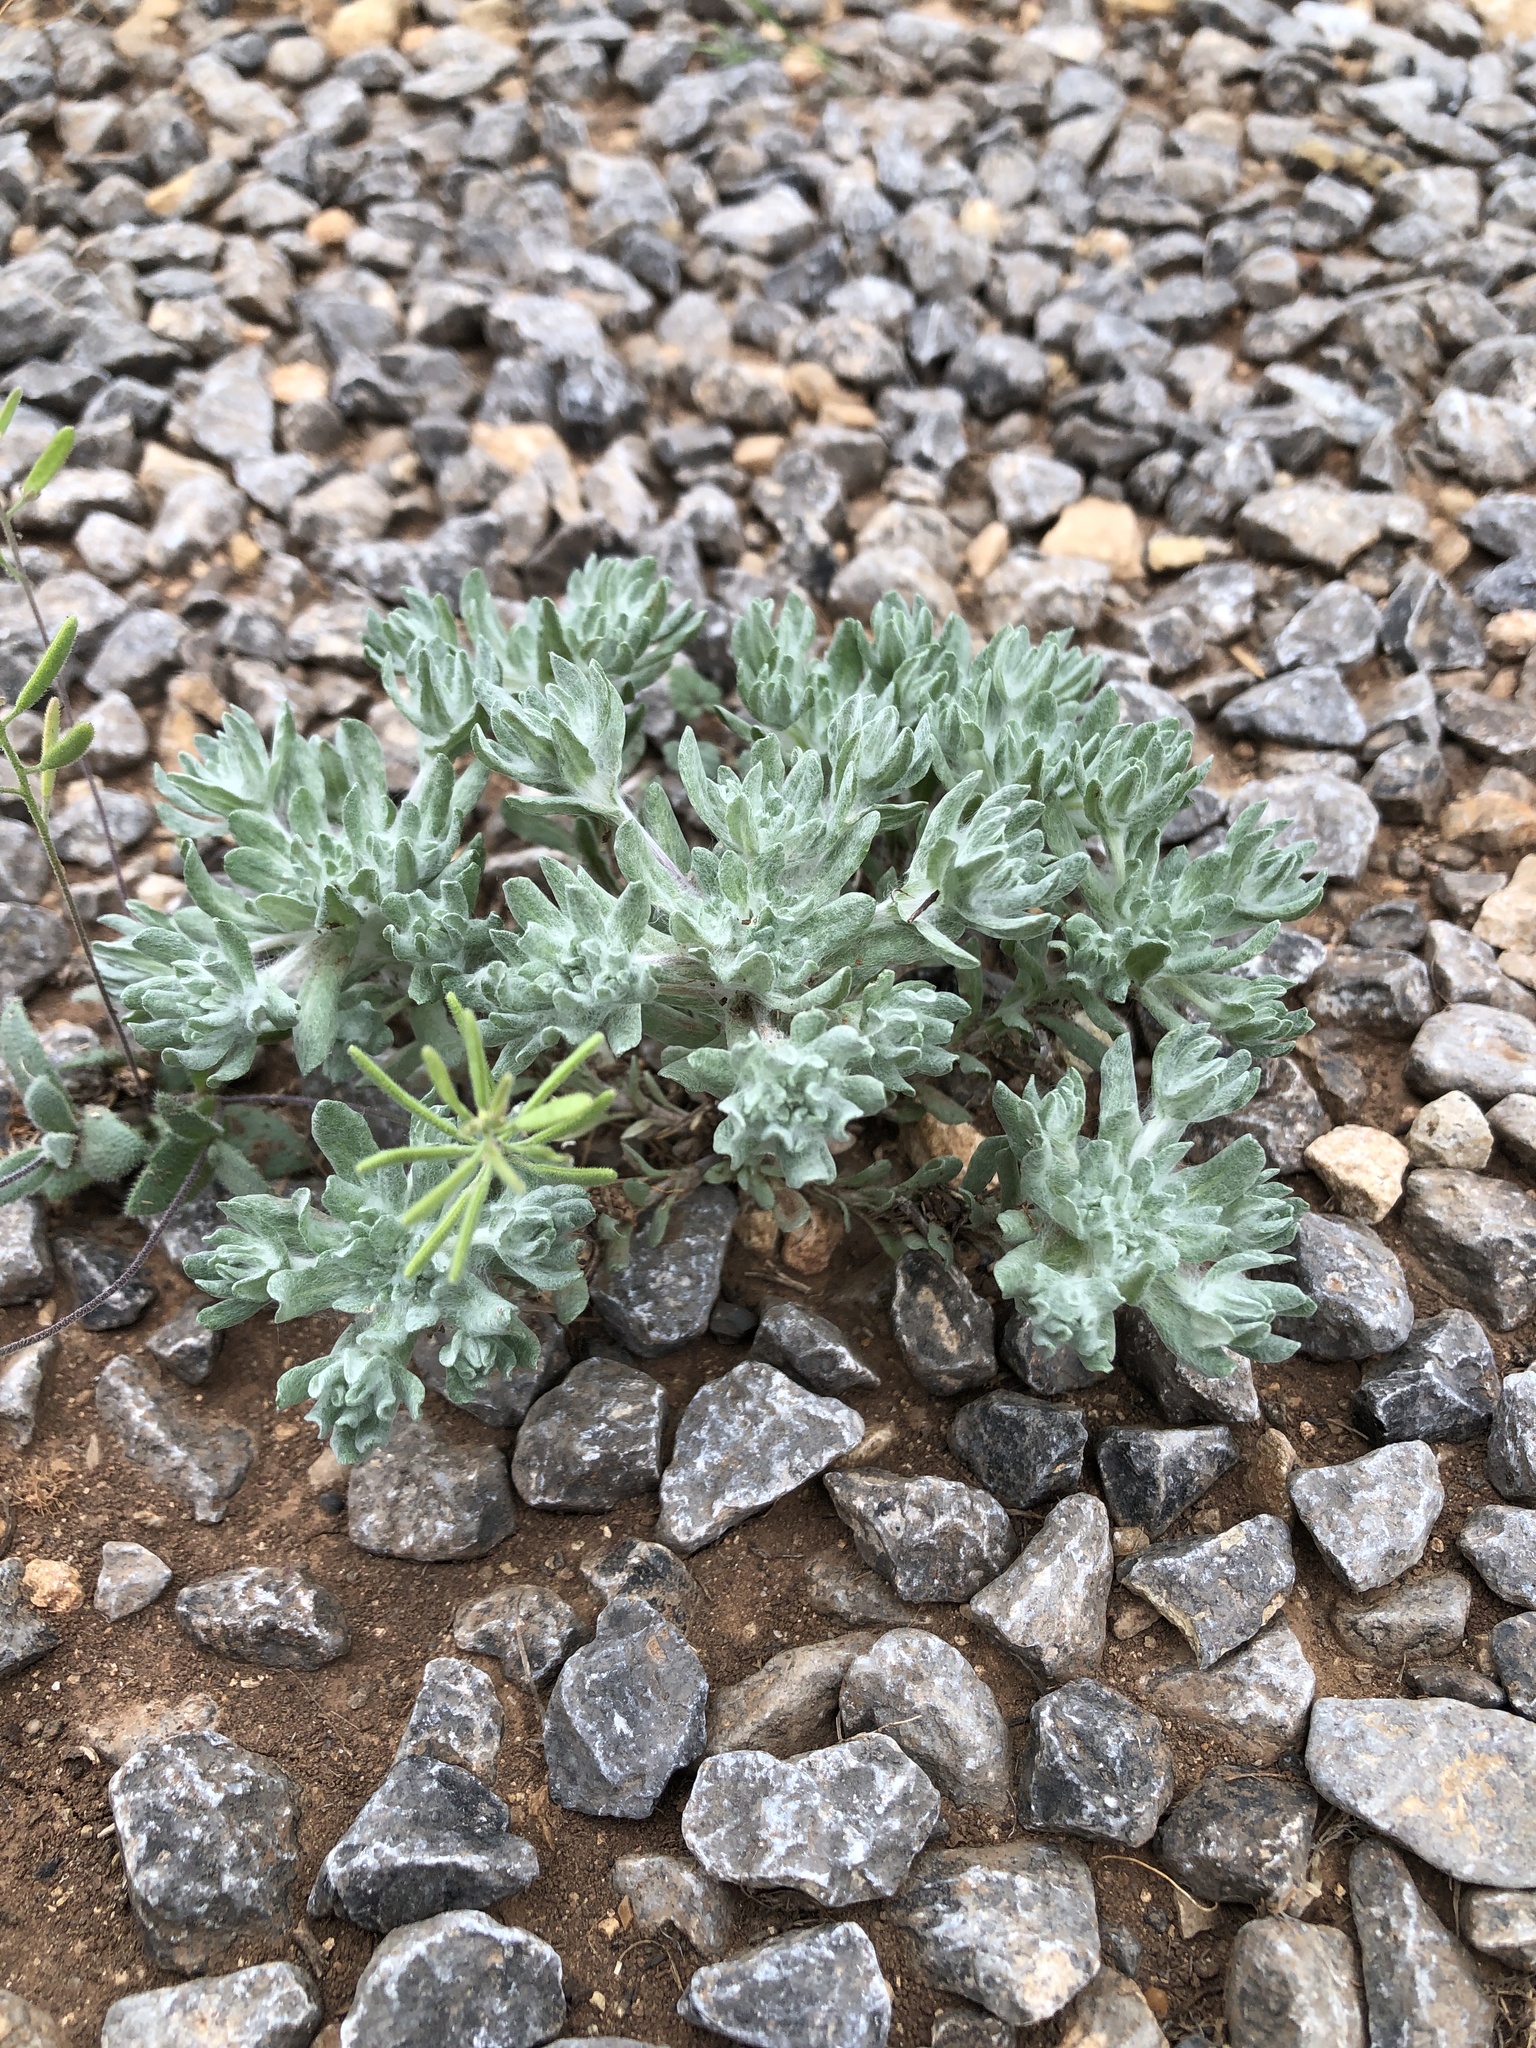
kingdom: Plantae
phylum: Tracheophyta
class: Magnoliopsida
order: Asterales
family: Asteraceae
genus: Diaperia
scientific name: Diaperia prolifera
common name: Big-head rabbit-tobacco
